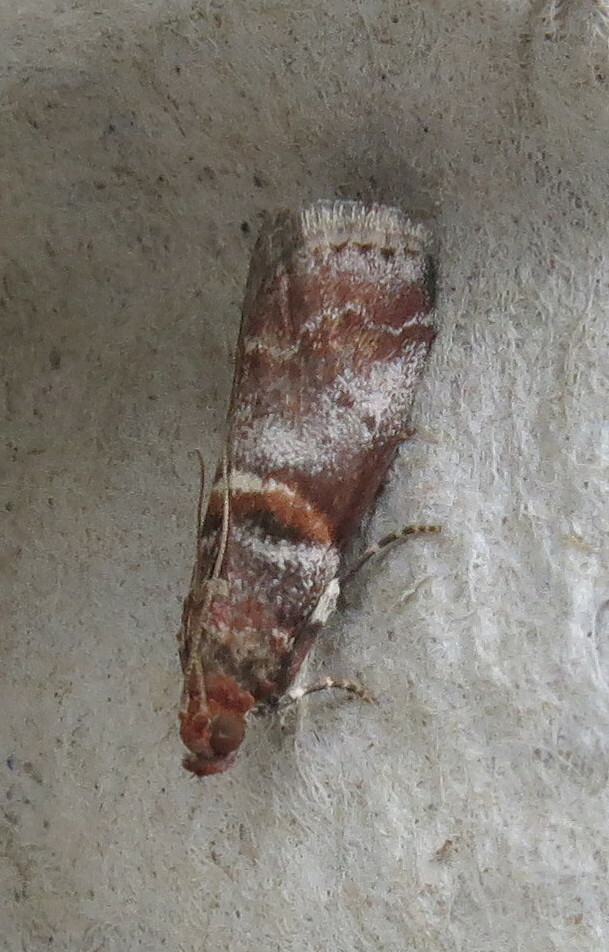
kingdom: Animalia
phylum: Arthropoda
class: Insecta
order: Lepidoptera
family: Pyralidae
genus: Acrobasis
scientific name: Acrobasis advenella
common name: Grey knot-horn
